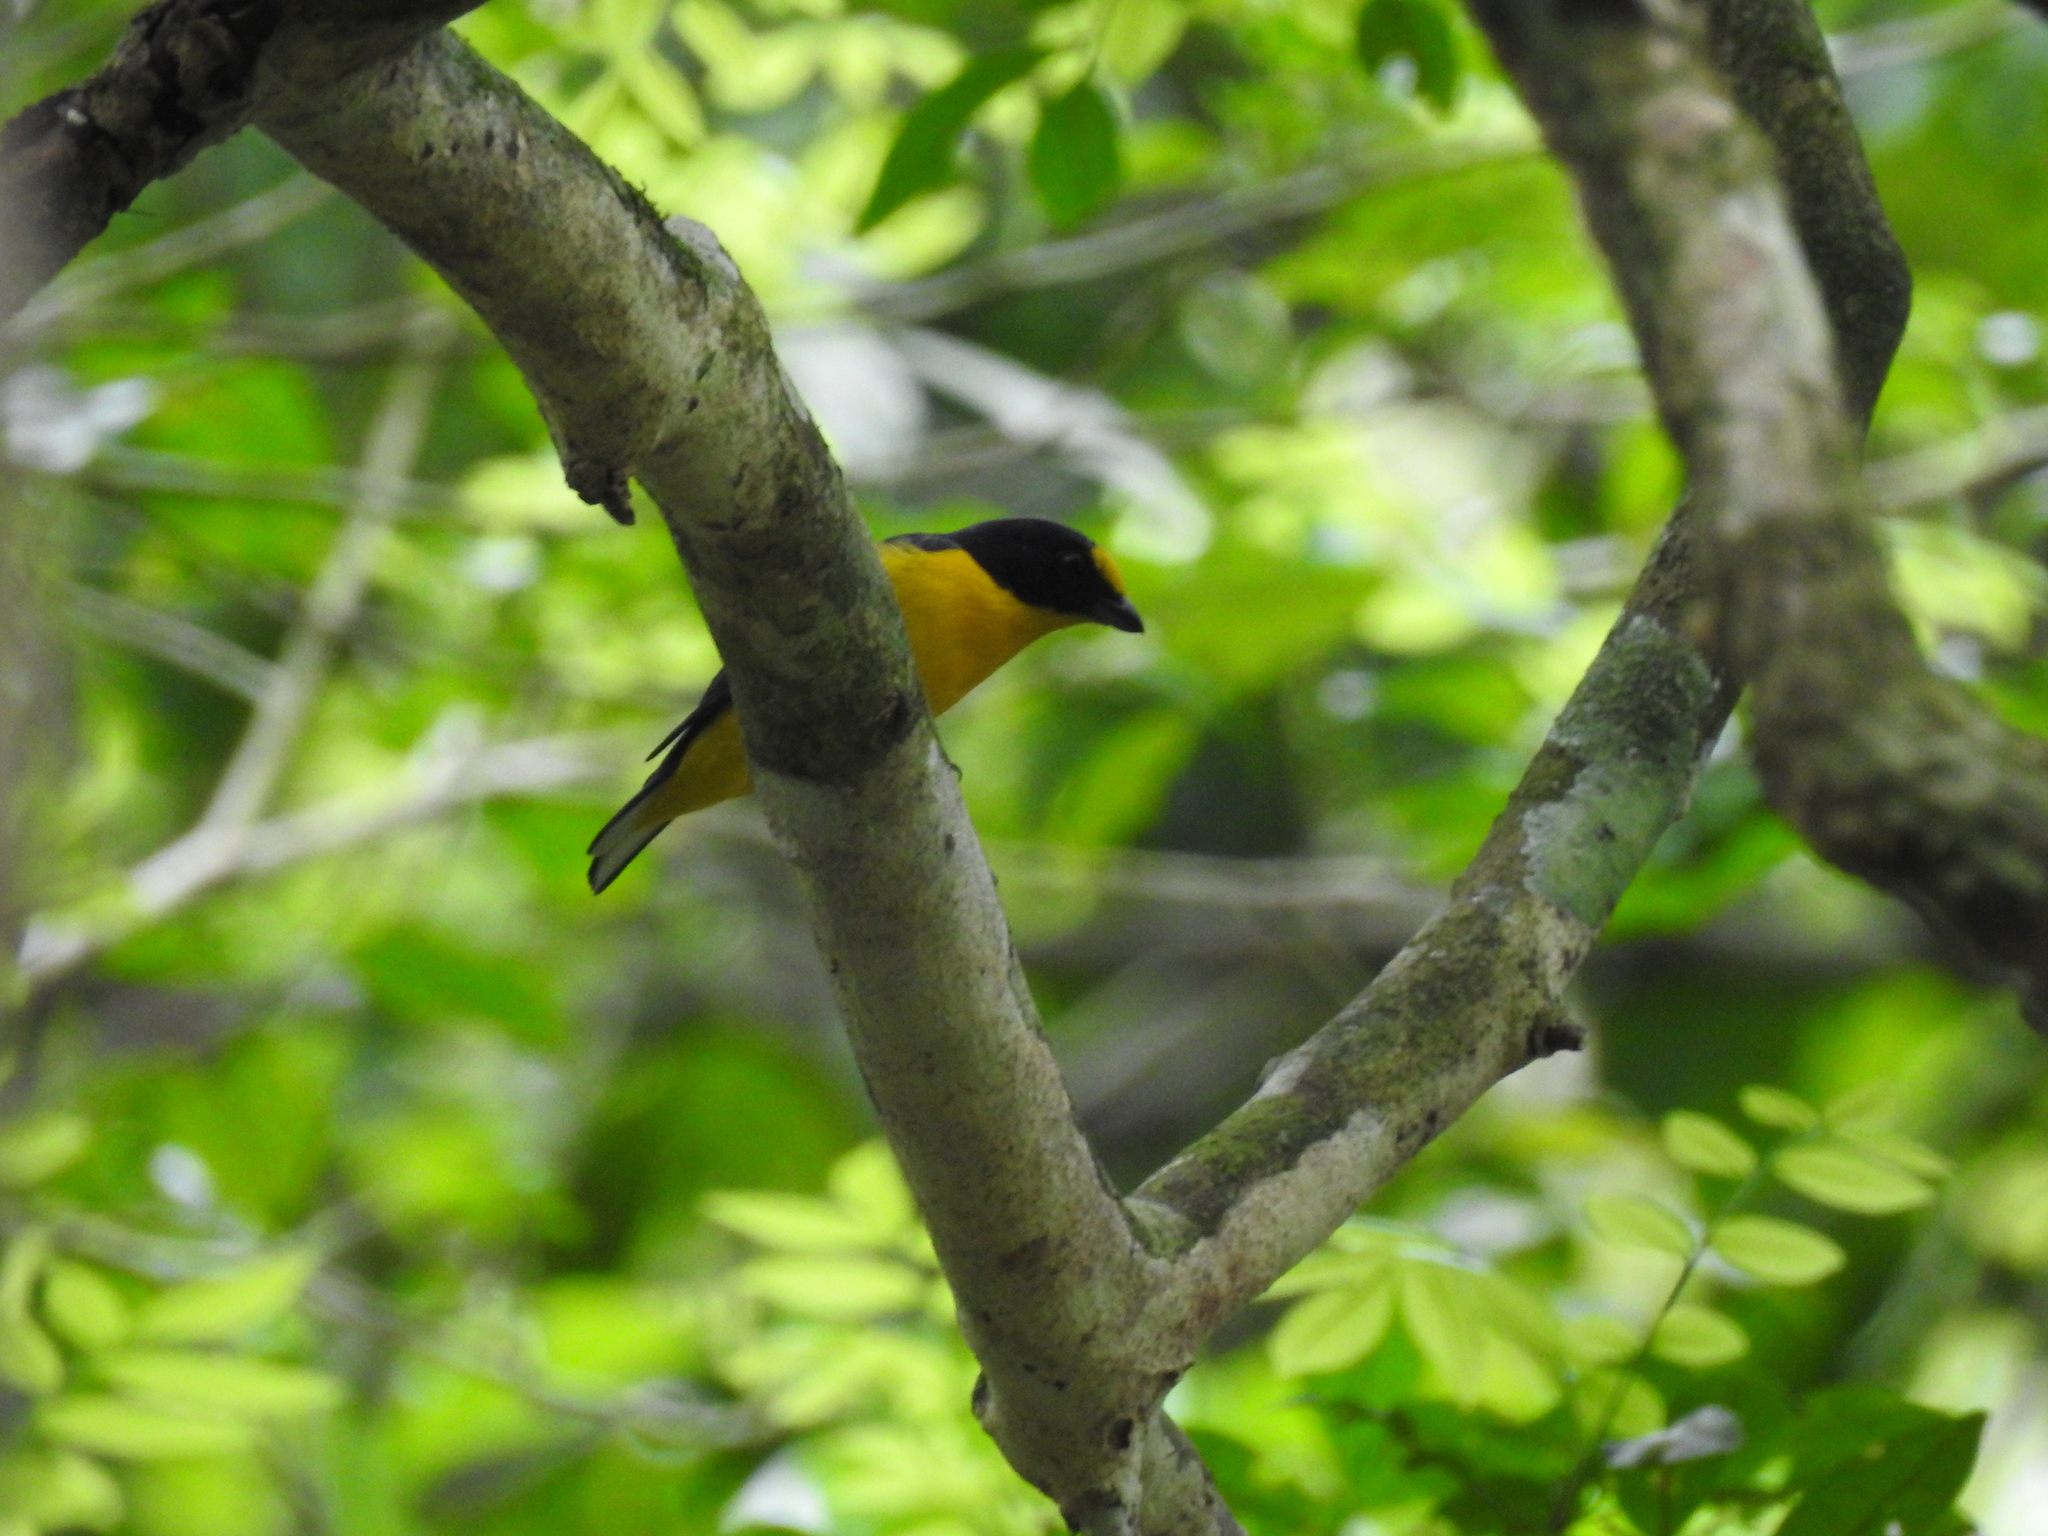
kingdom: Animalia
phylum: Chordata
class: Aves
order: Passeriformes
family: Fringillidae
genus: Euphonia
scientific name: Euphonia hirundinacea
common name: Yellow-throated euphonia
